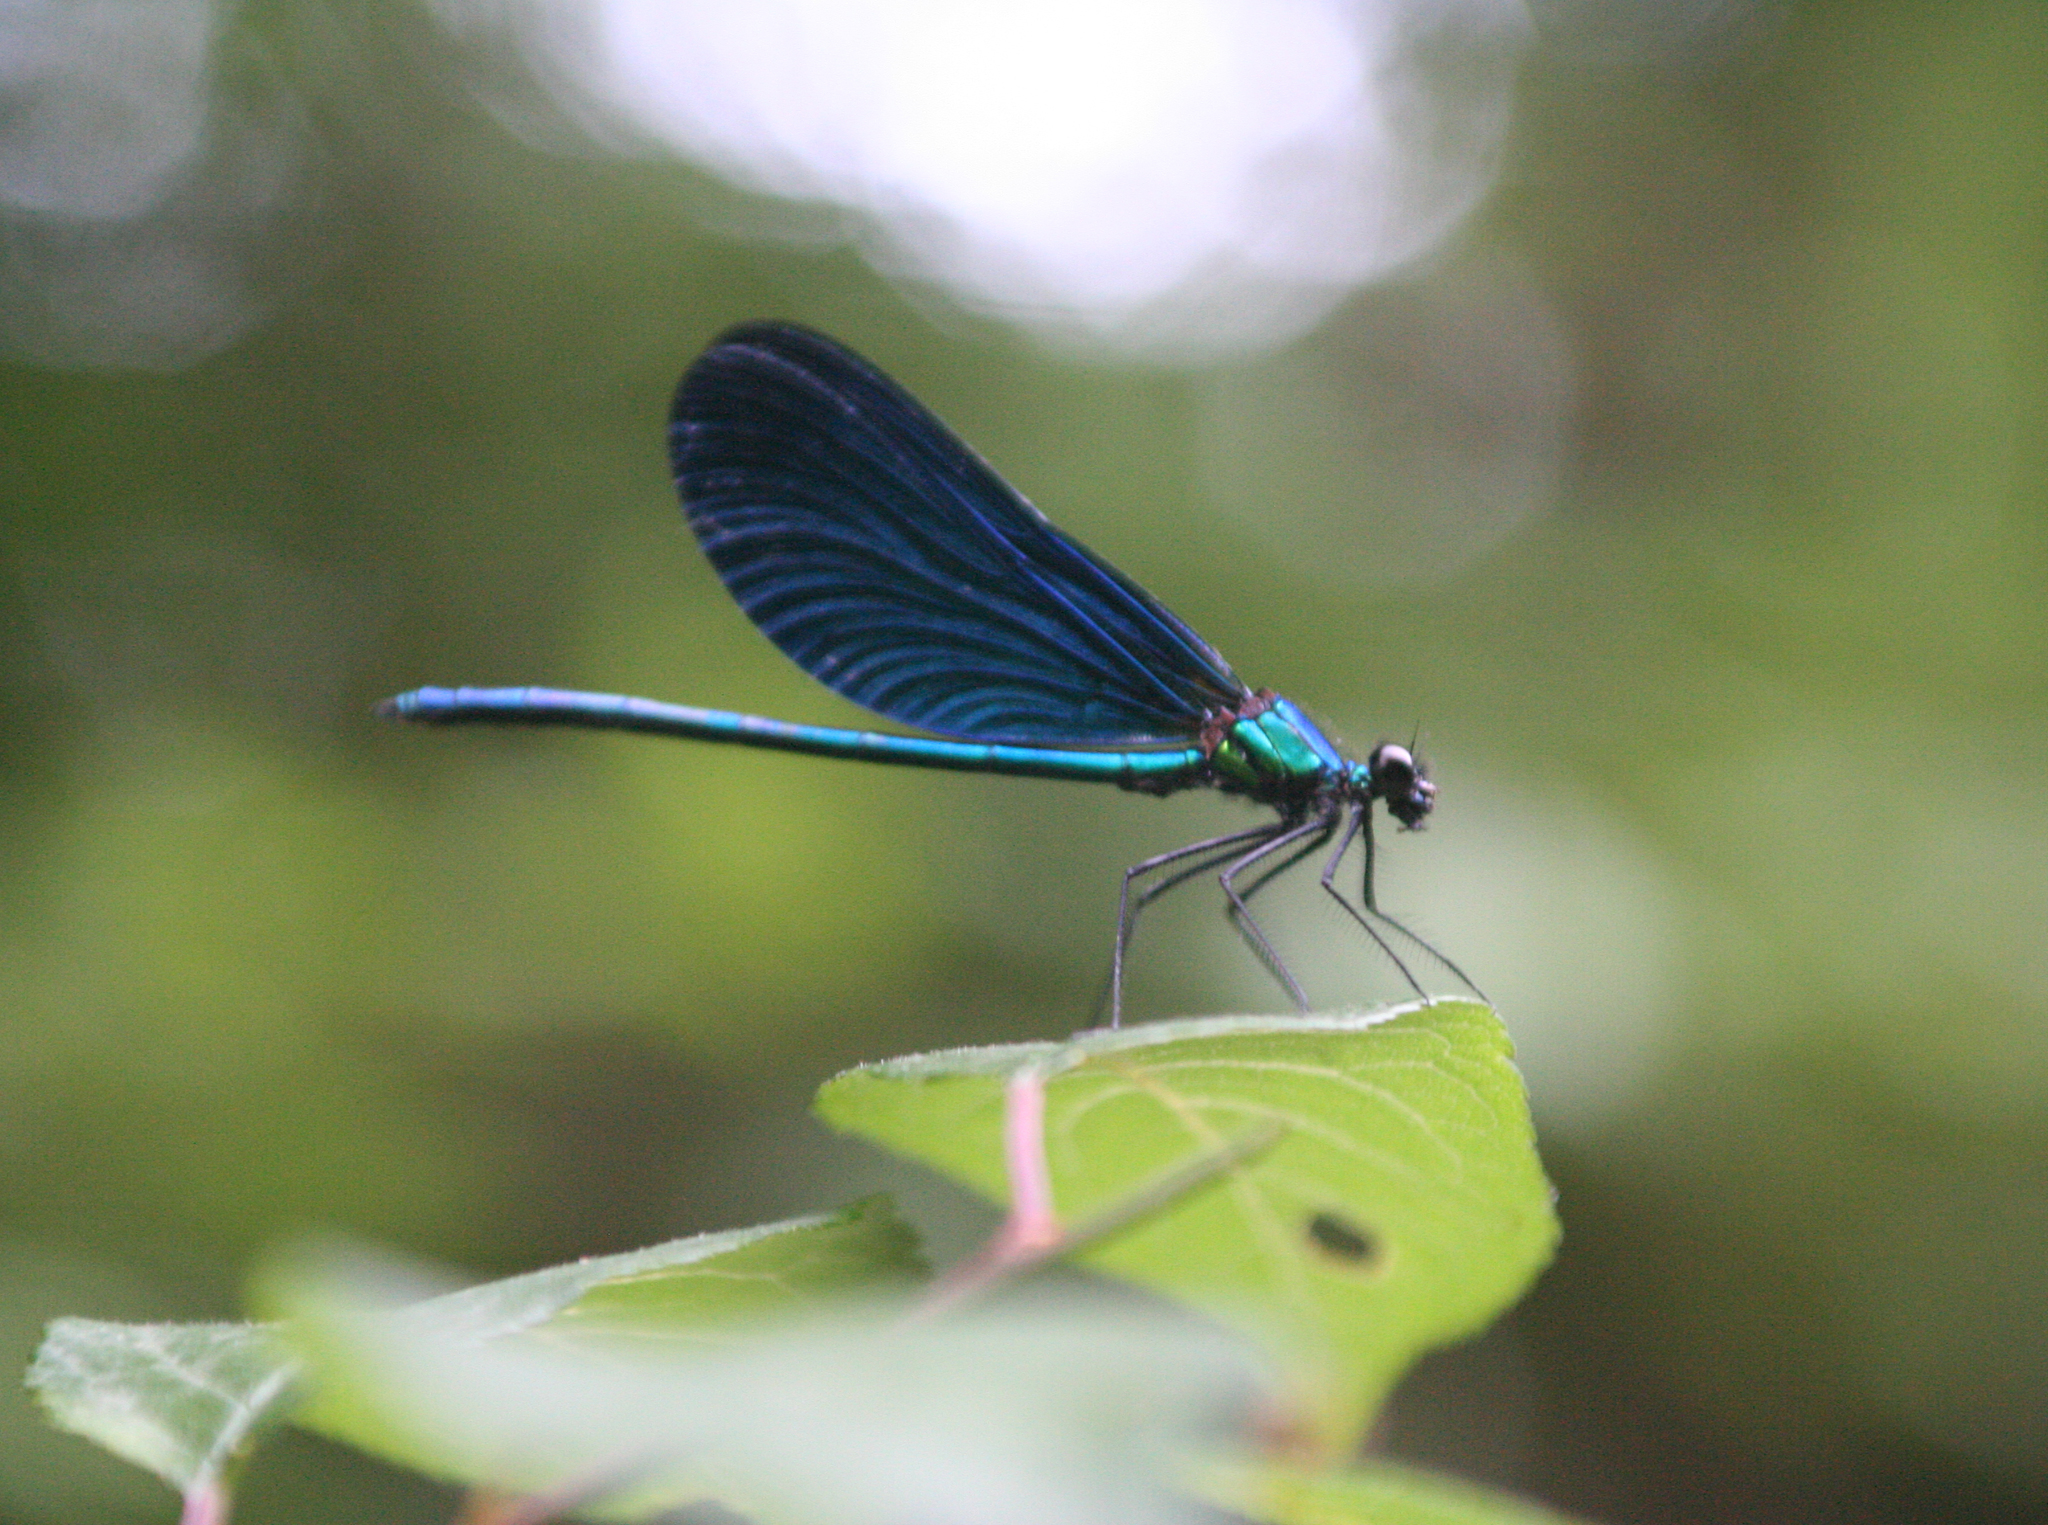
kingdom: Animalia
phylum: Arthropoda
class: Insecta
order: Odonata
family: Calopterygidae
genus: Calopteryx
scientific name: Calopteryx virgo
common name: Beautiful demoiselle
